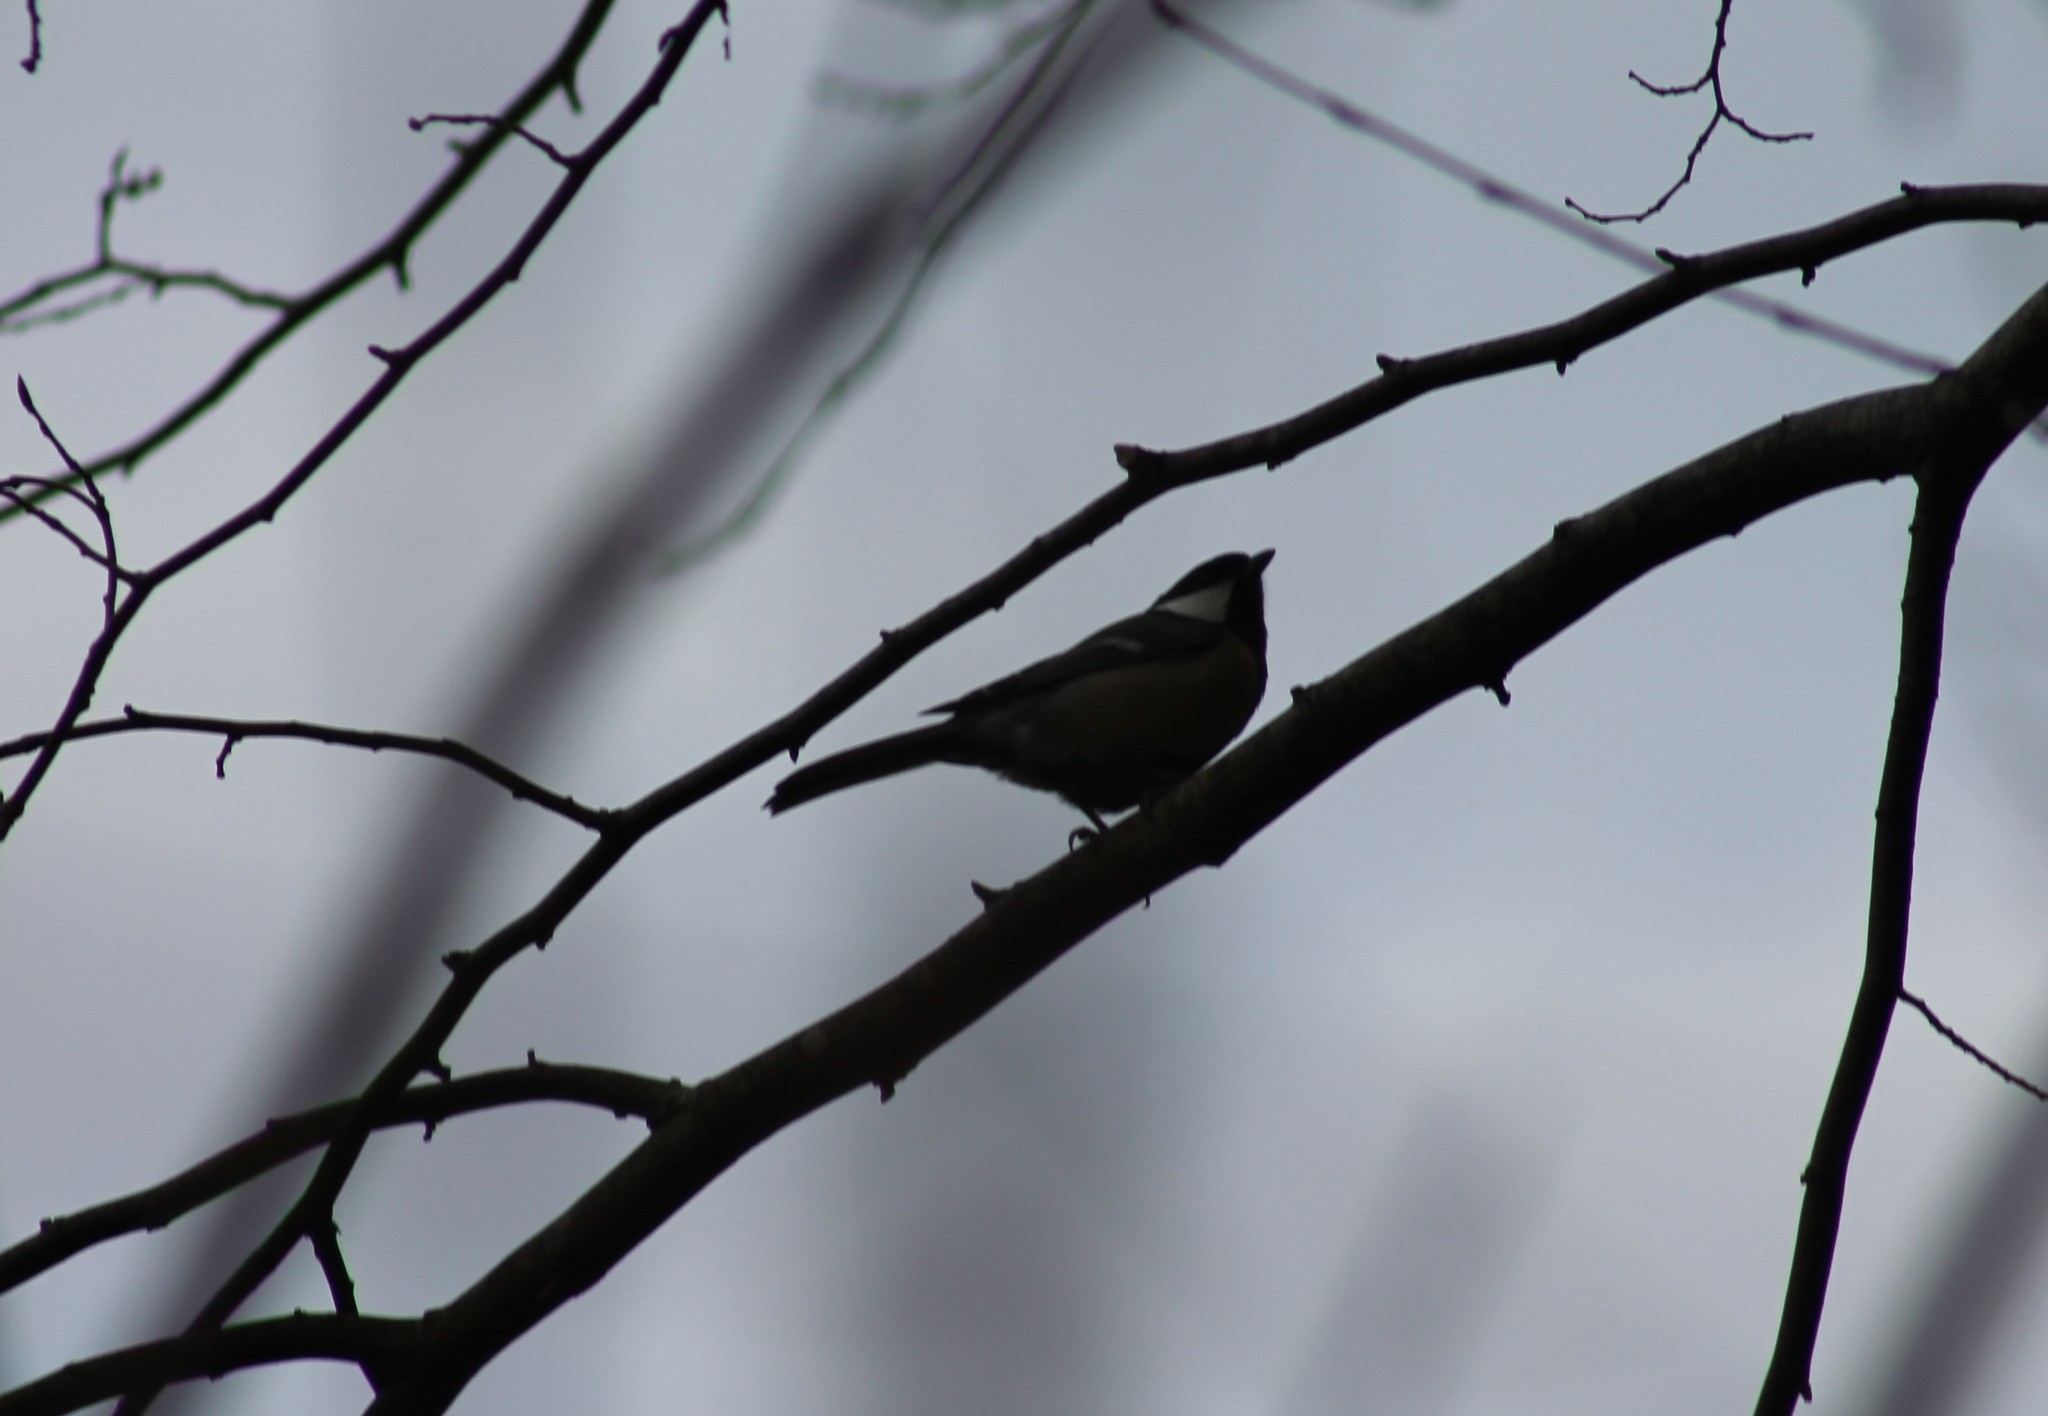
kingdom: Animalia
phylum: Chordata
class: Aves
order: Passeriformes
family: Paridae
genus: Parus
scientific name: Parus major
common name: Great tit
